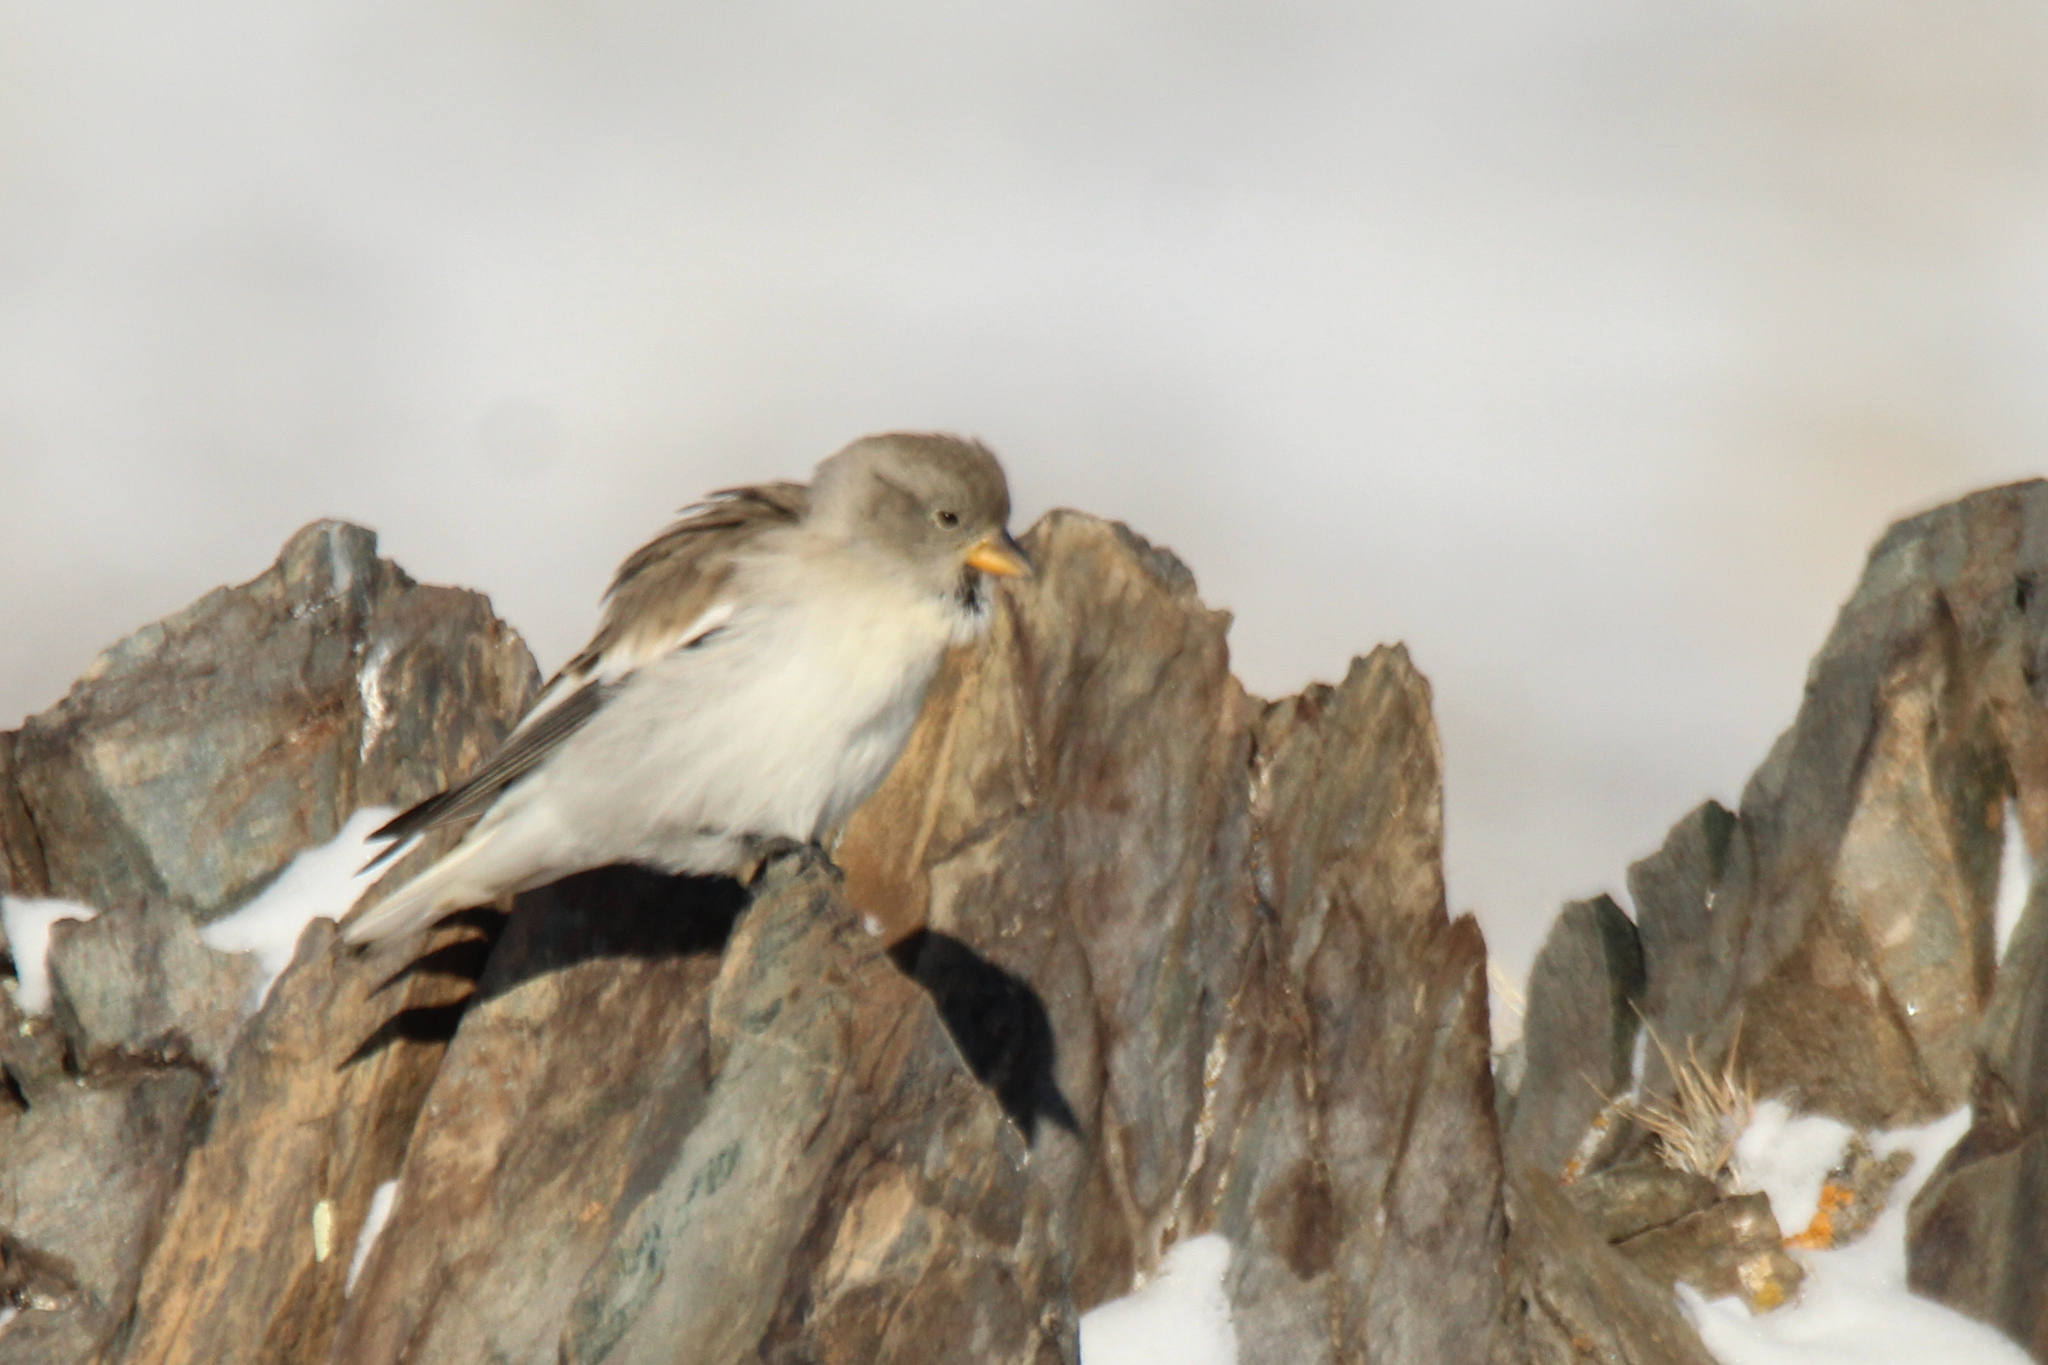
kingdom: Animalia
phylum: Chordata
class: Aves
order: Passeriformes
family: Passeridae
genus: Montifringilla
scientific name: Montifringilla nivalis
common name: White-winged snowfinch
